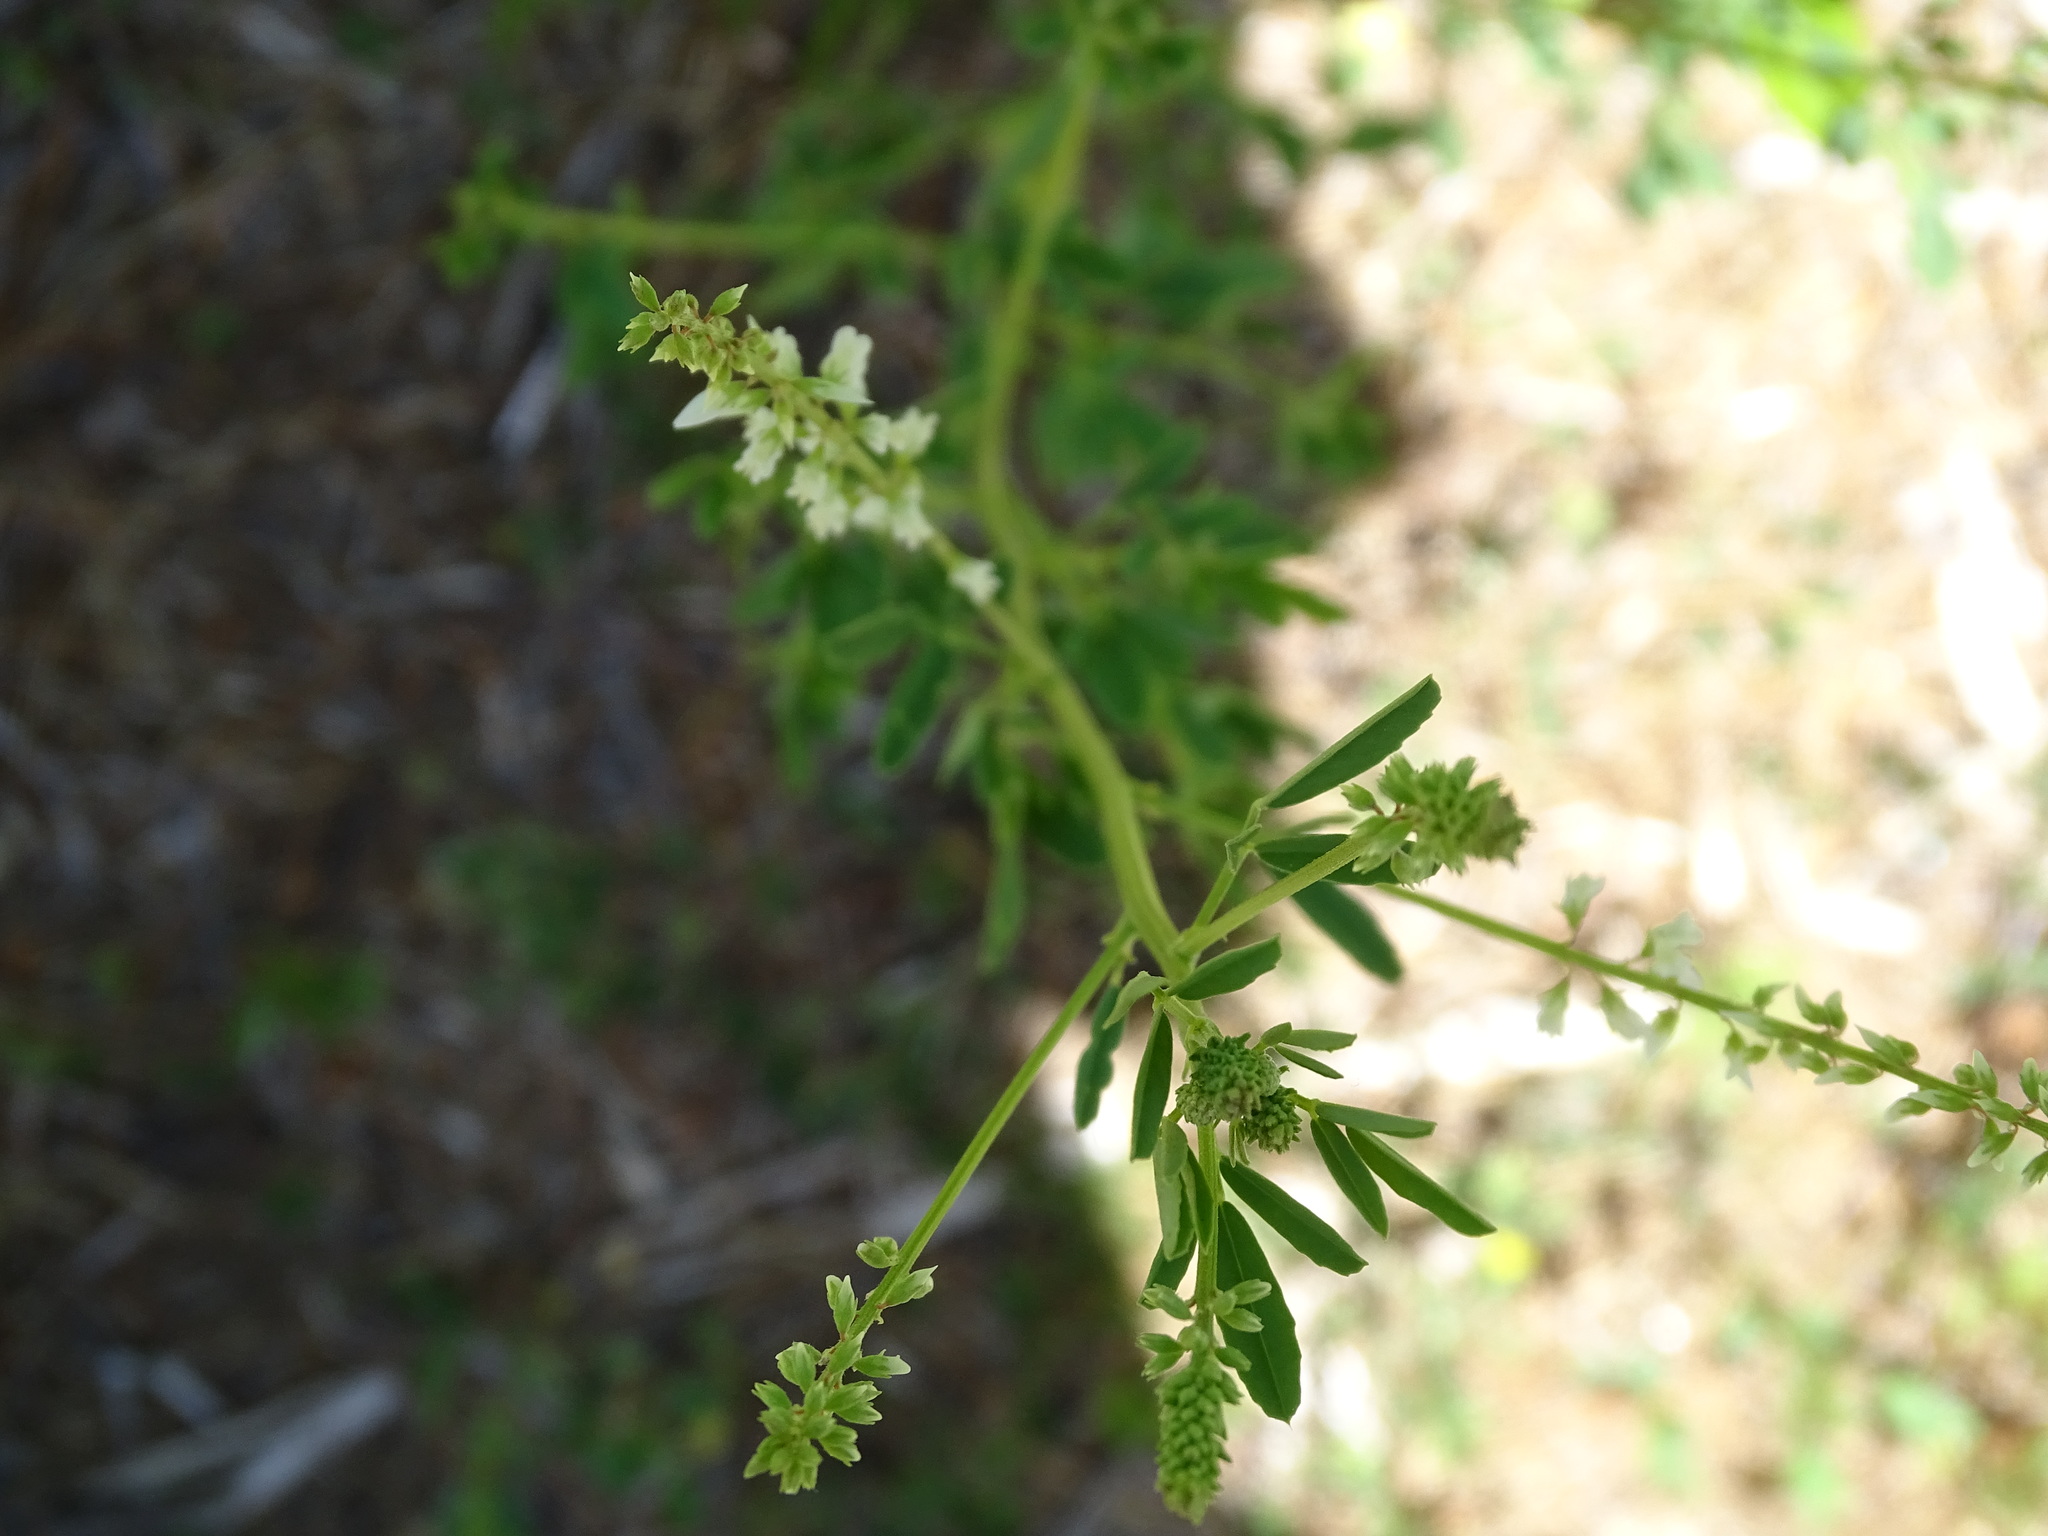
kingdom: Plantae
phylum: Tracheophyta
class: Magnoliopsida
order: Fabales
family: Fabaceae
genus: Melilotus
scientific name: Melilotus albus
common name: White melilot
